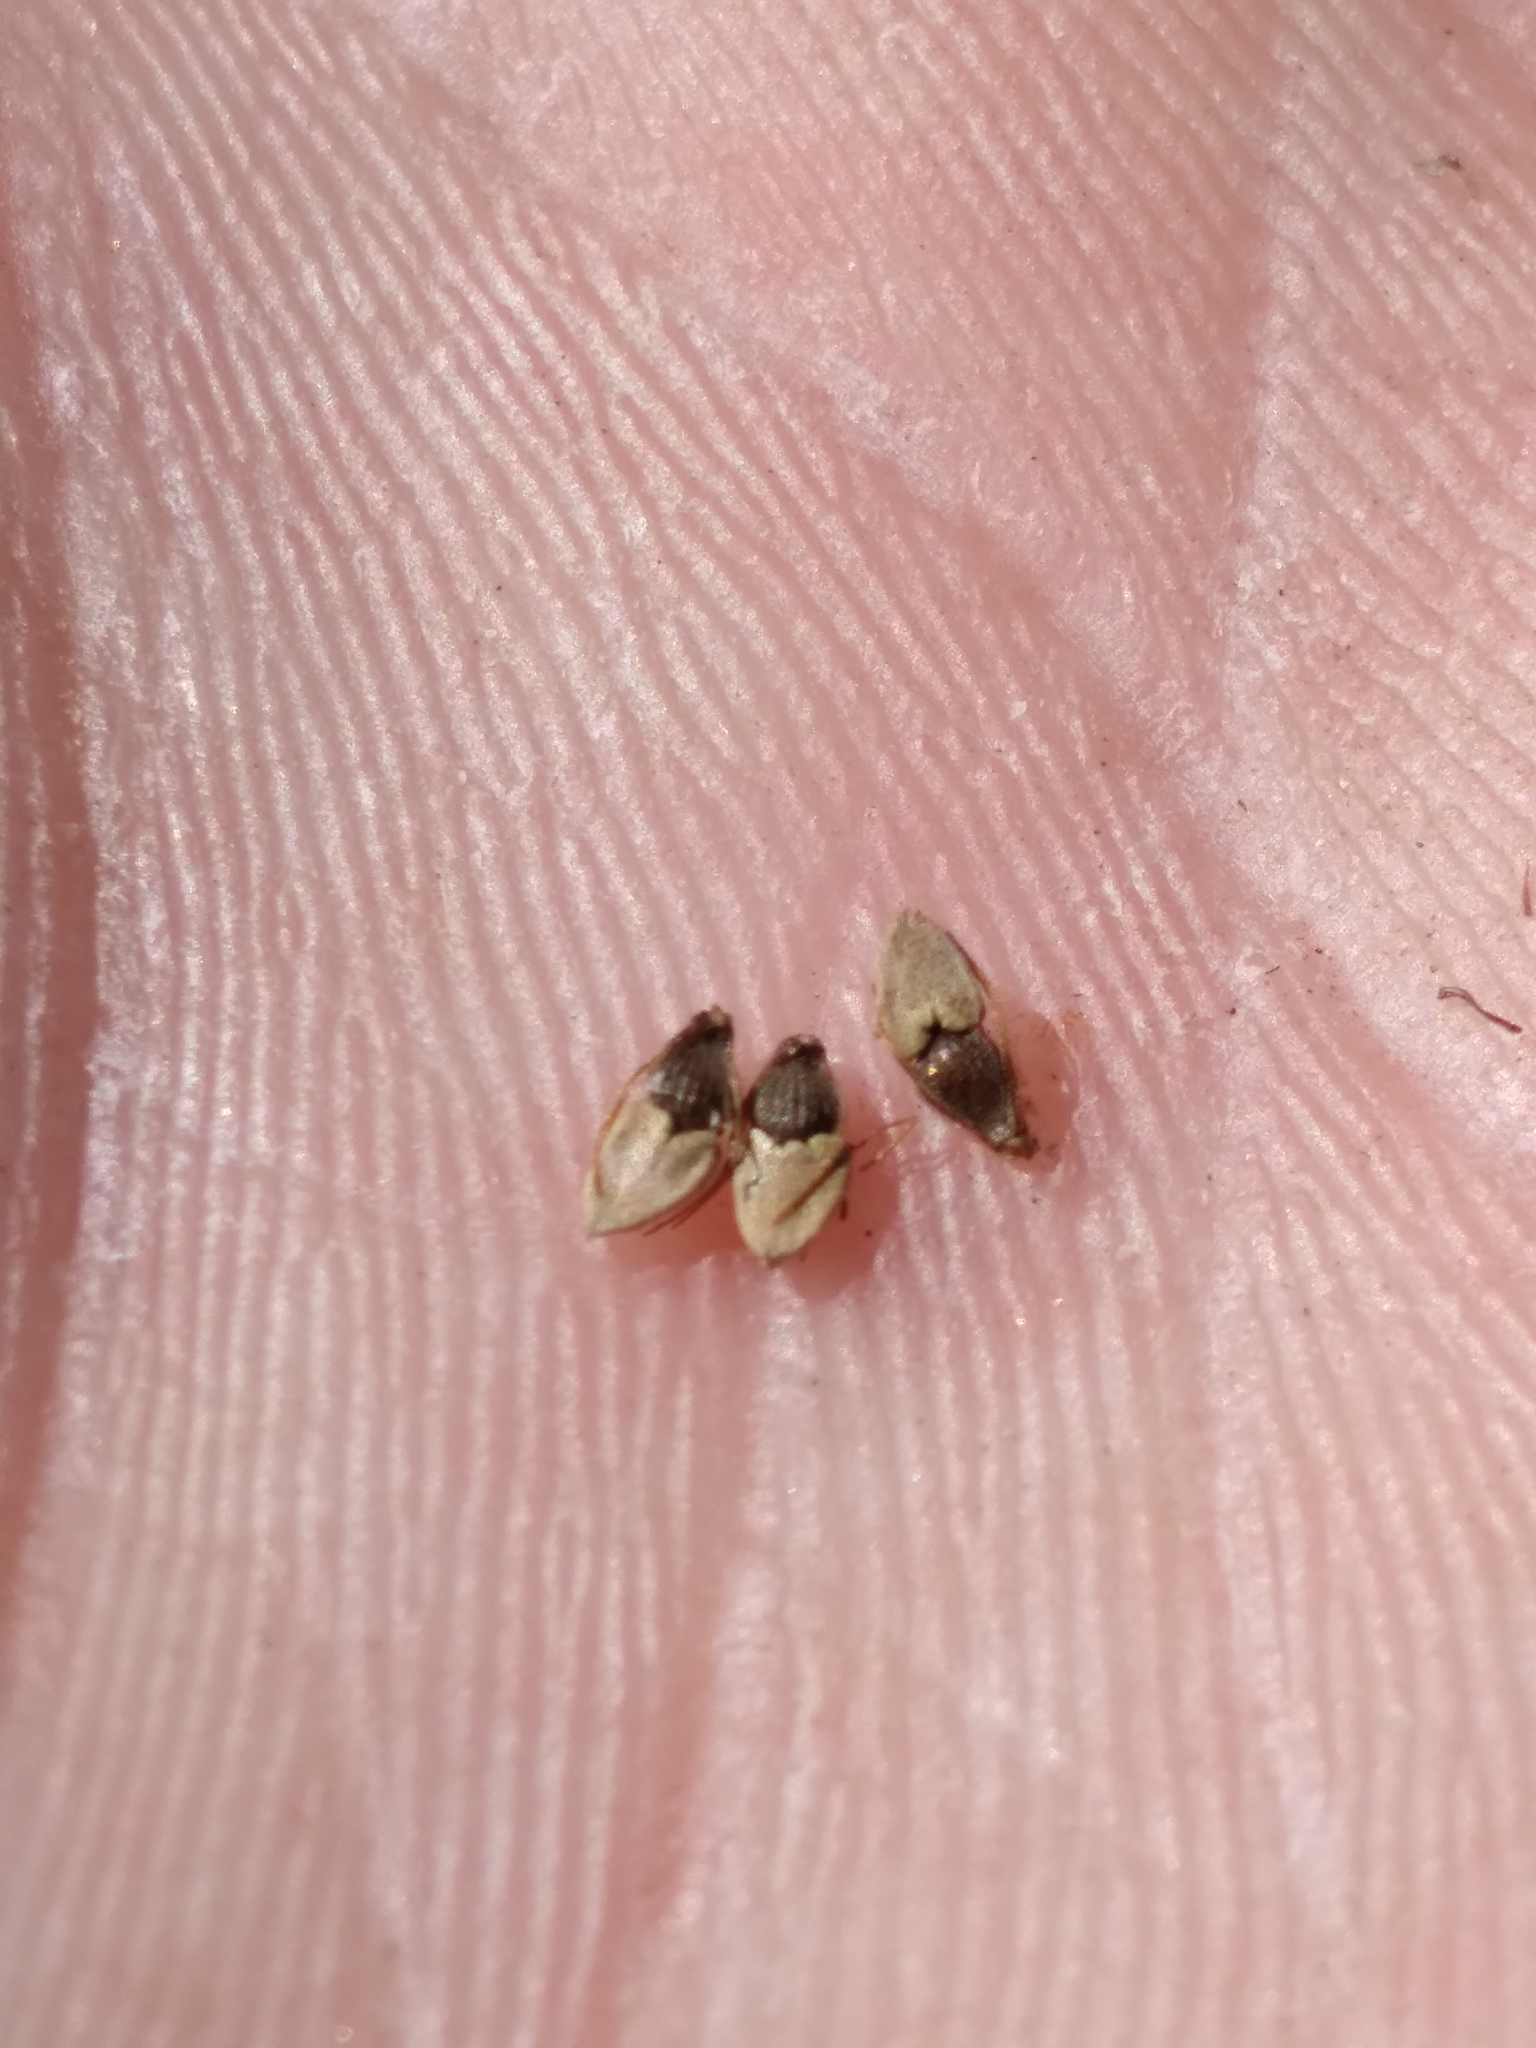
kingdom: Plantae
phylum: Tracheophyta
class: Liliopsida
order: Poales
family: Cyperaceae
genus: Eleocharis
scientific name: Eleocharis tuberculosa
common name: Cone-cup spikerush
